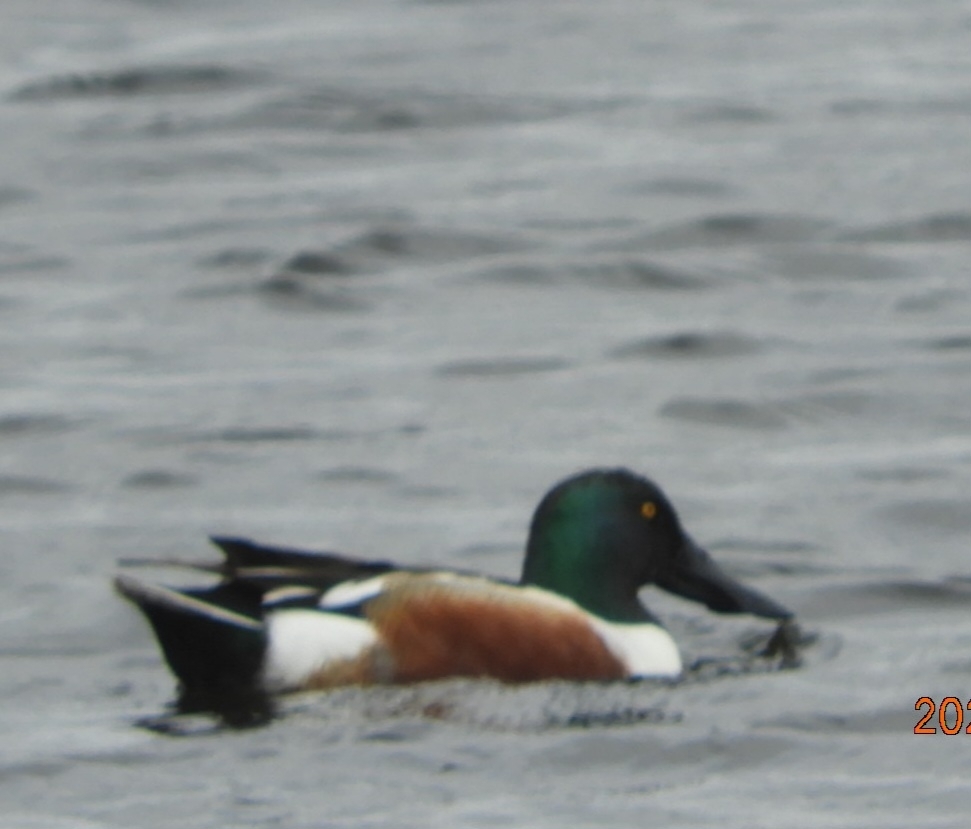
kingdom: Animalia
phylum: Chordata
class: Aves
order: Anseriformes
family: Anatidae
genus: Spatula
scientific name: Spatula clypeata
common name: Northern shoveler
